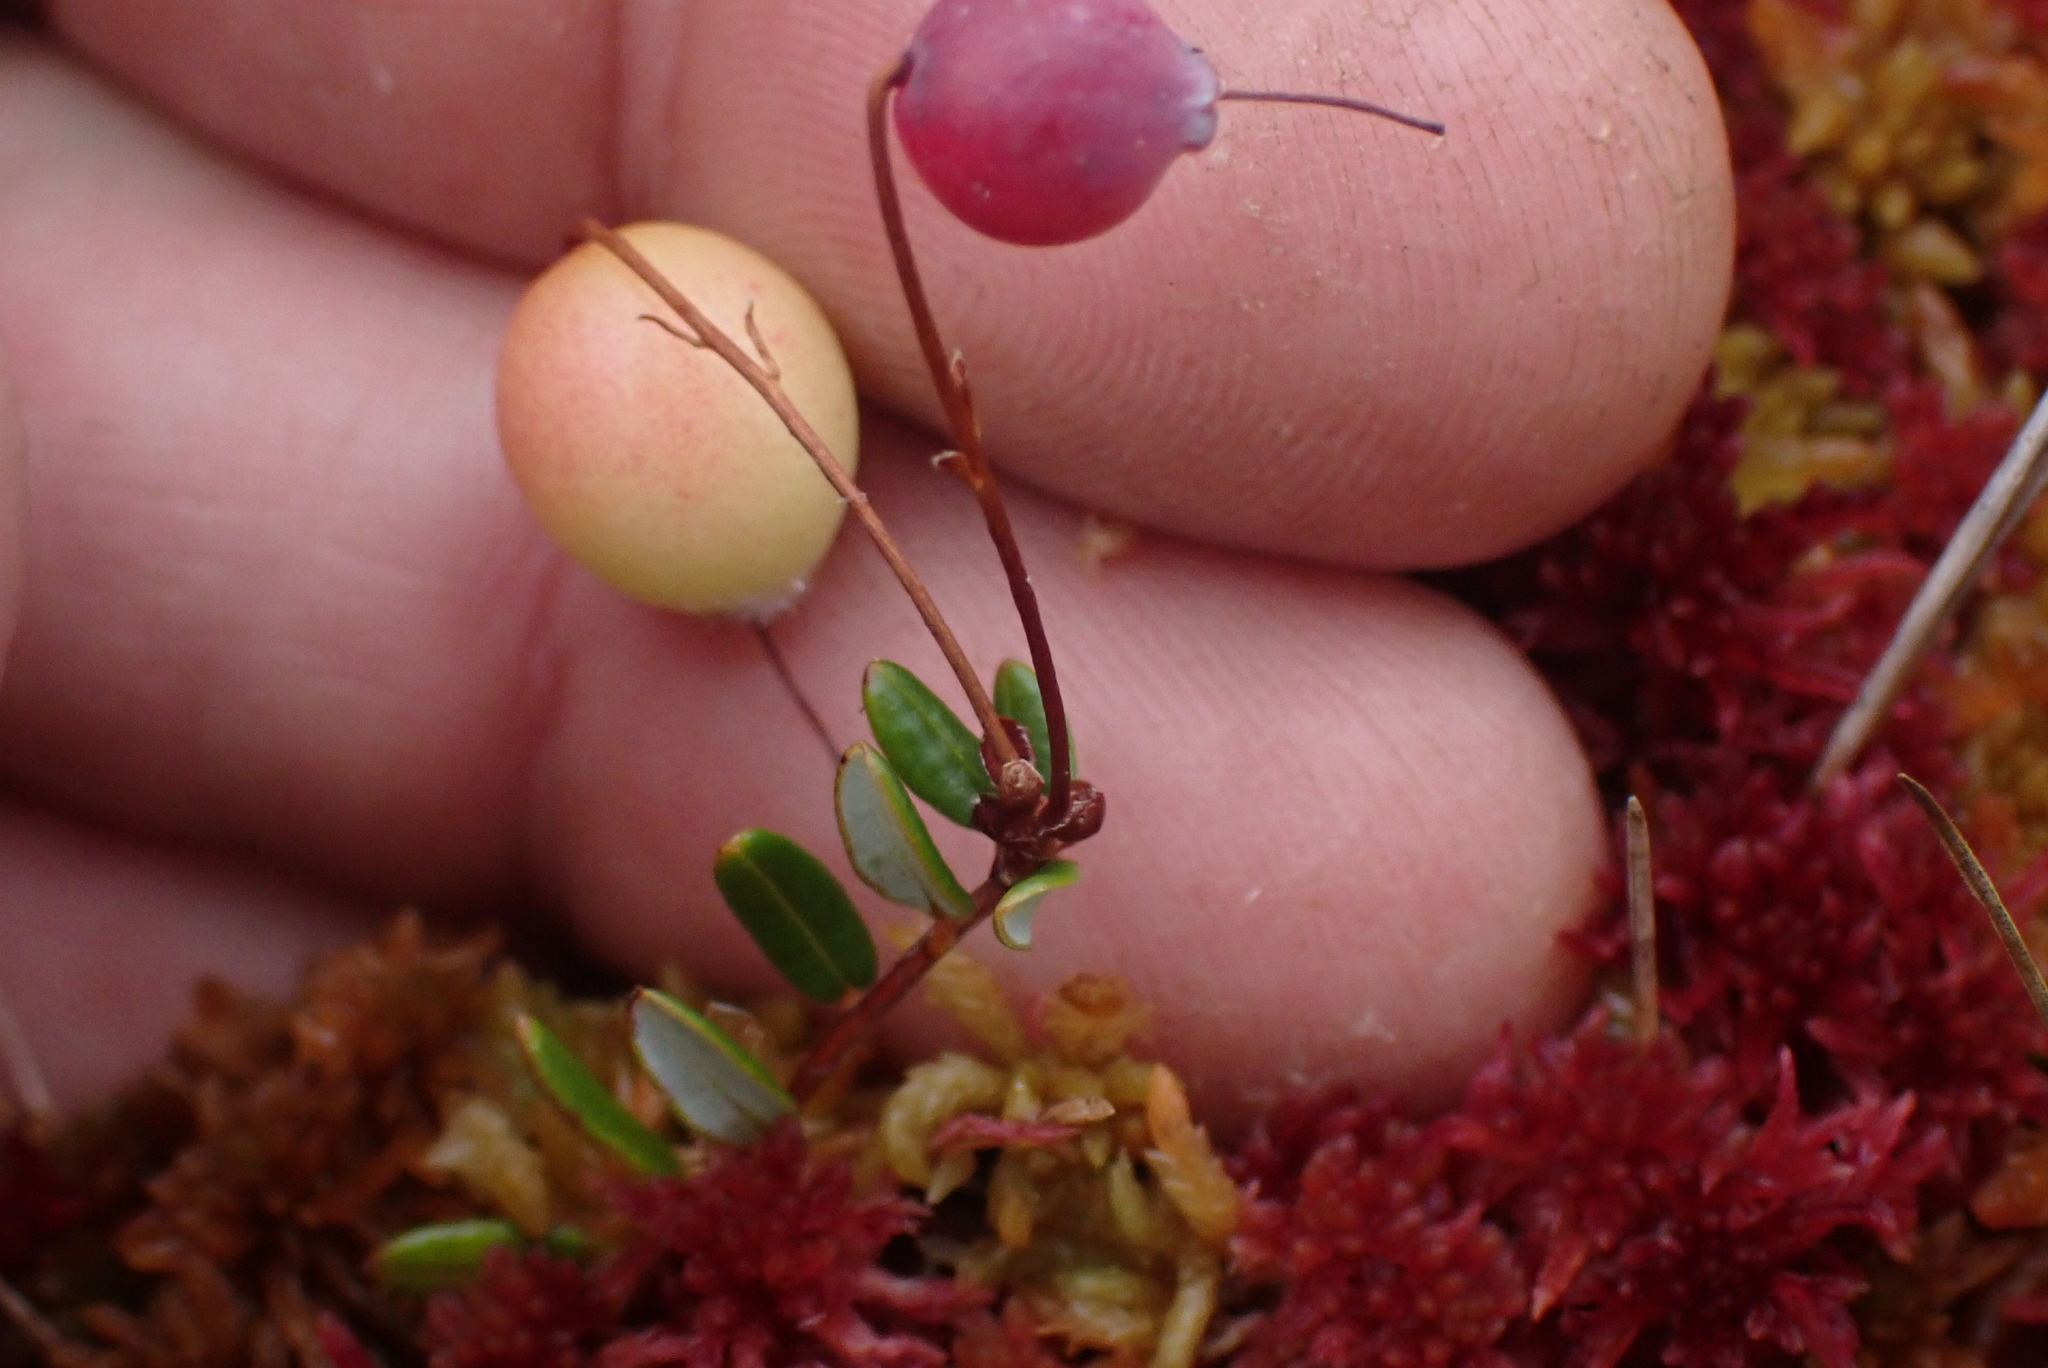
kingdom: Plantae
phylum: Tracheophyta
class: Magnoliopsida
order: Ericales
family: Ericaceae
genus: Vaccinium
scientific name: Vaccinium oxycoccos
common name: Cranberry
